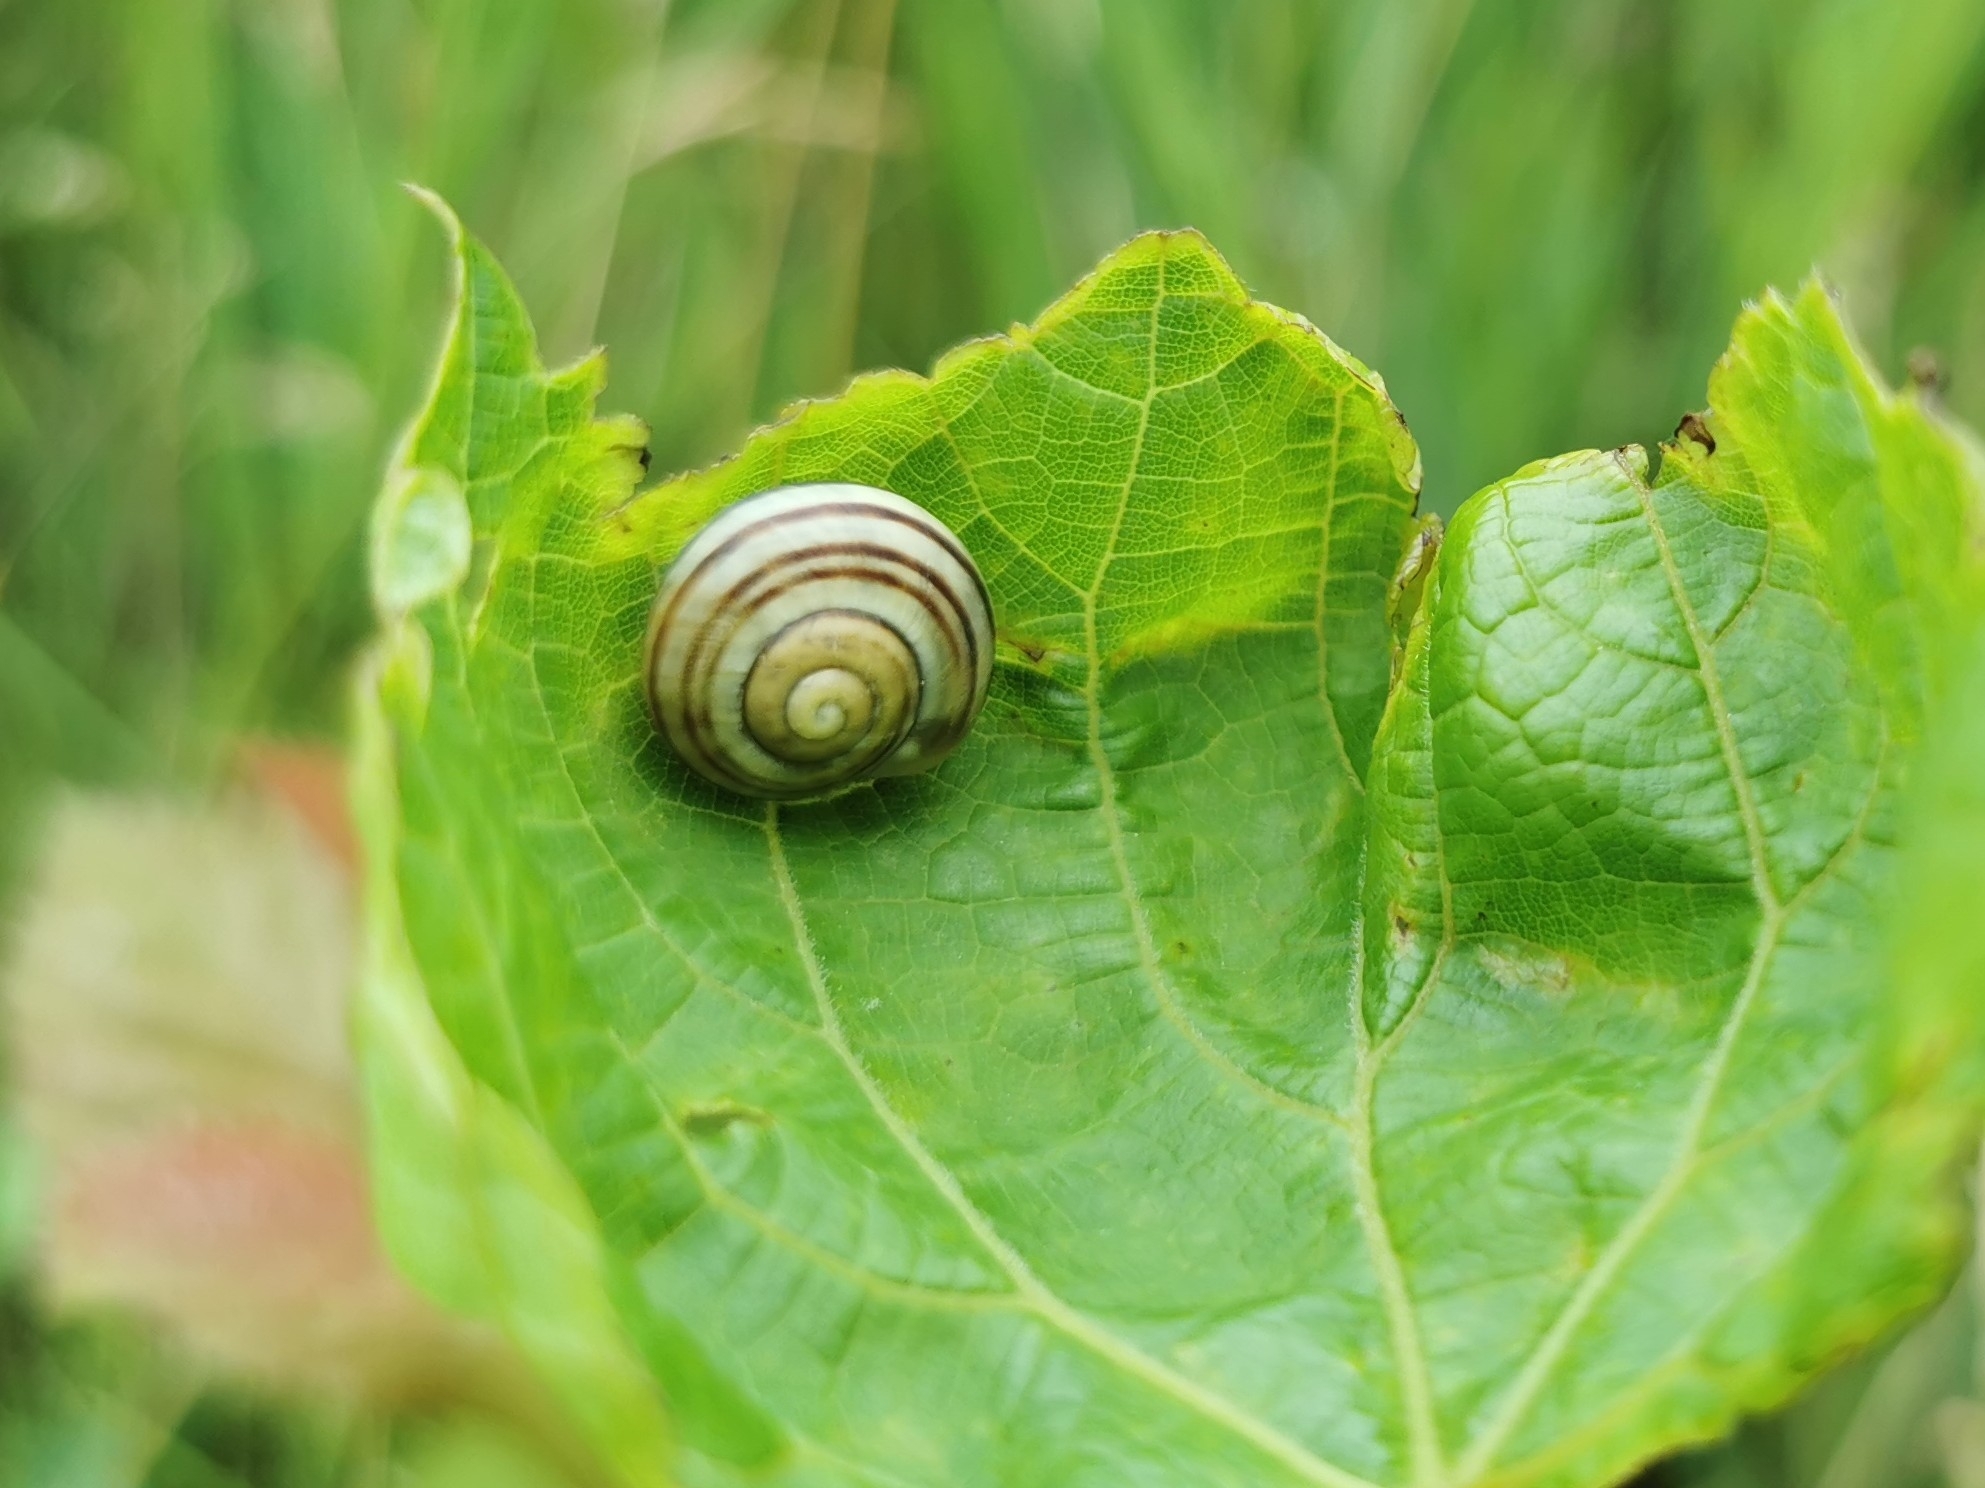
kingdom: Animalia
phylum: Mollusca
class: Gastropoda
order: Stylommatophora
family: Helicidae
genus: Cepaea
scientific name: Cepaea
